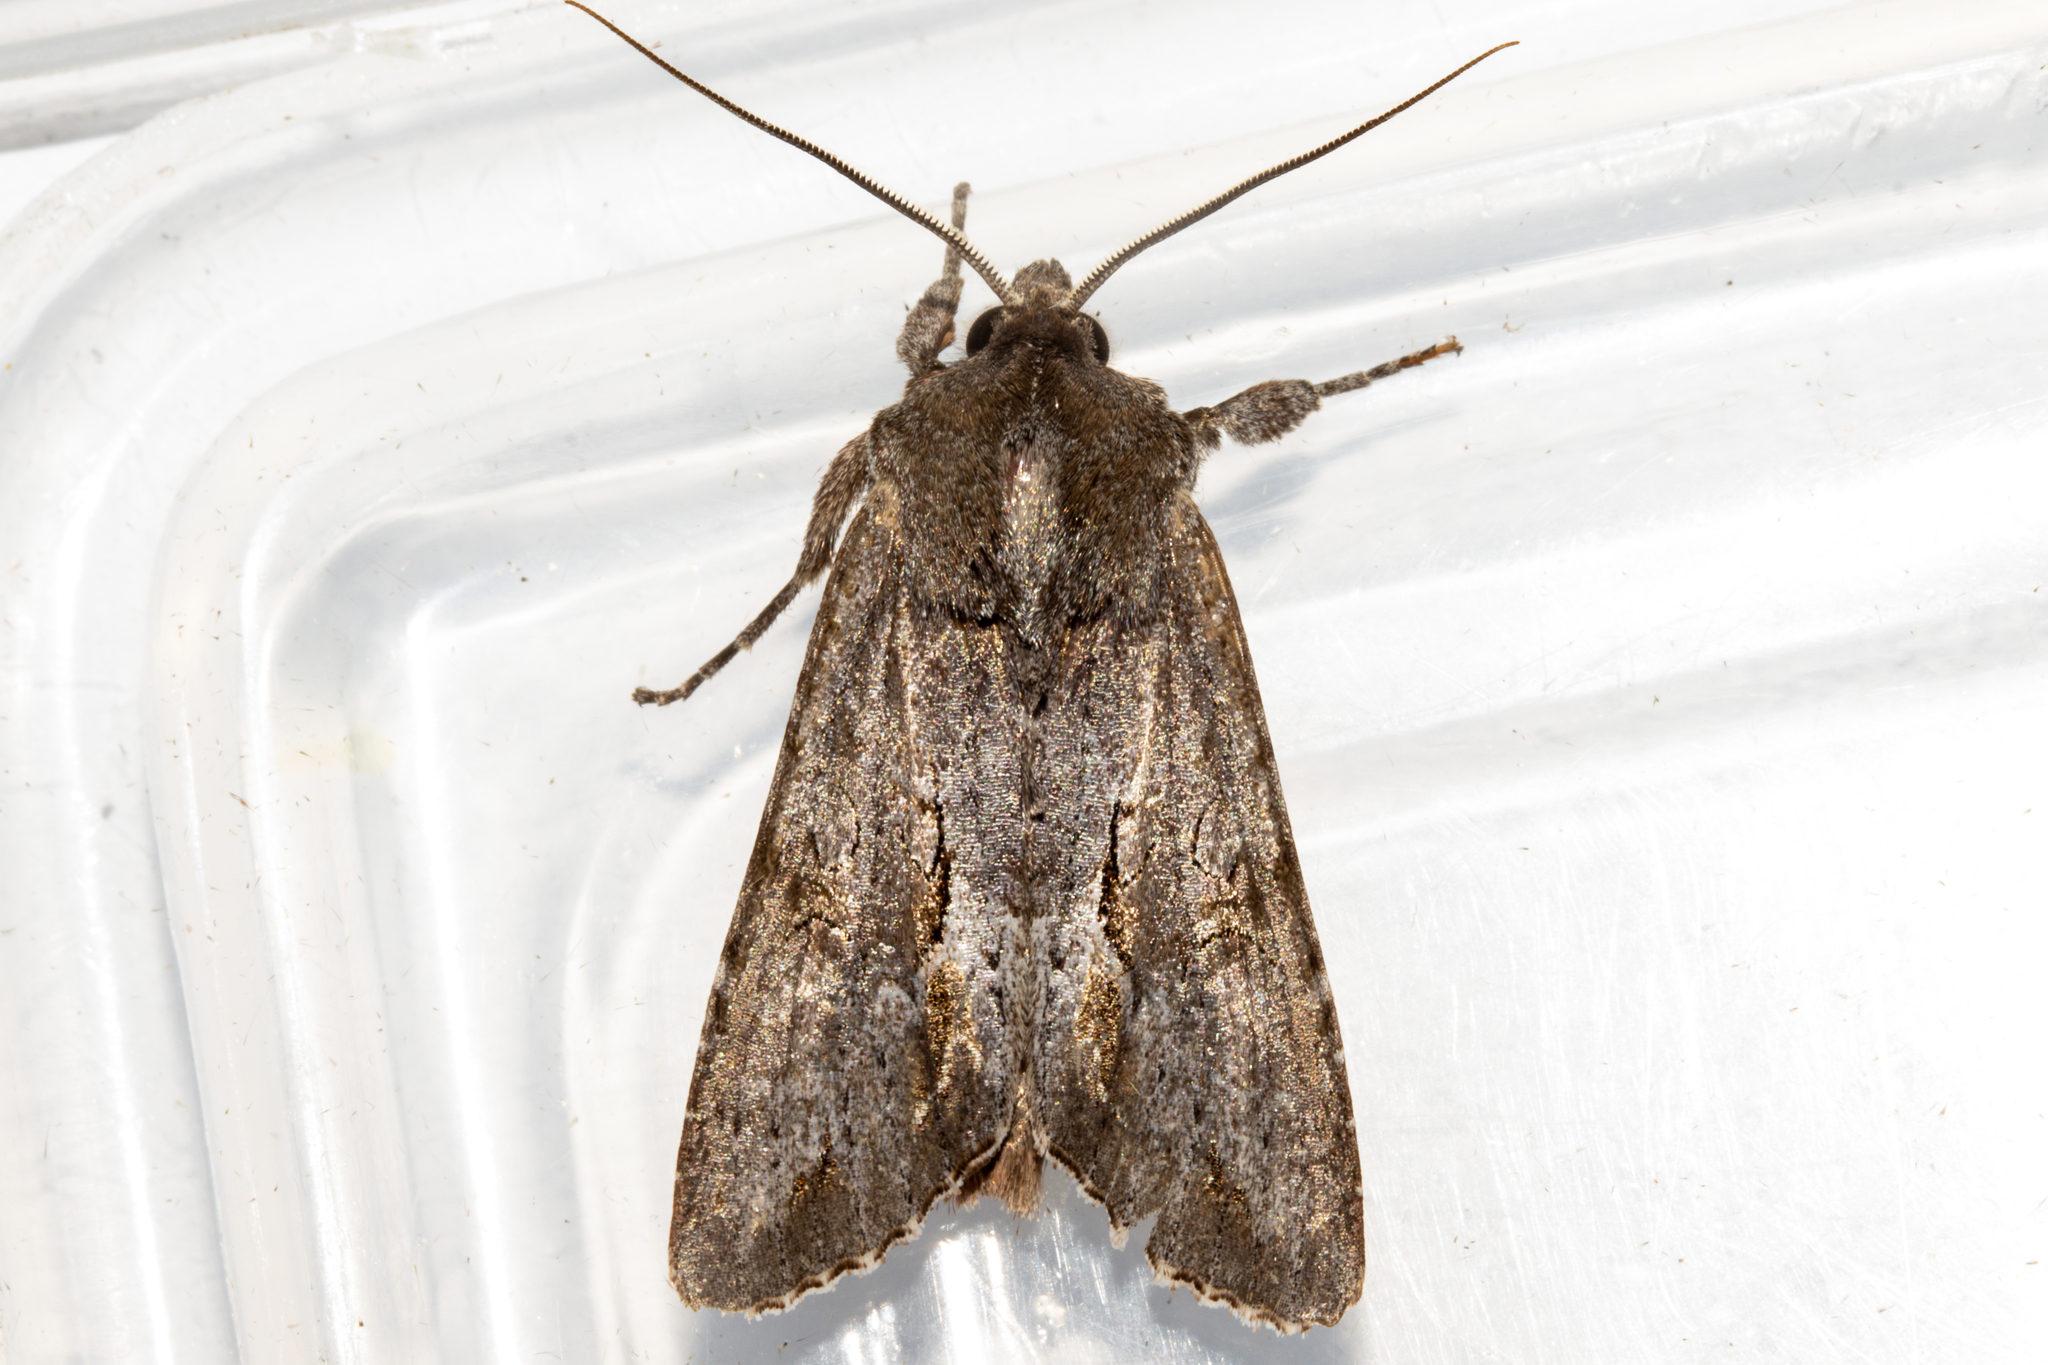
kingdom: Animalia
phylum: Arthropoda
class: Insecta
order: Lepidoptera
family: Noctuidae
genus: Ichneutica
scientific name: Ichneutica
